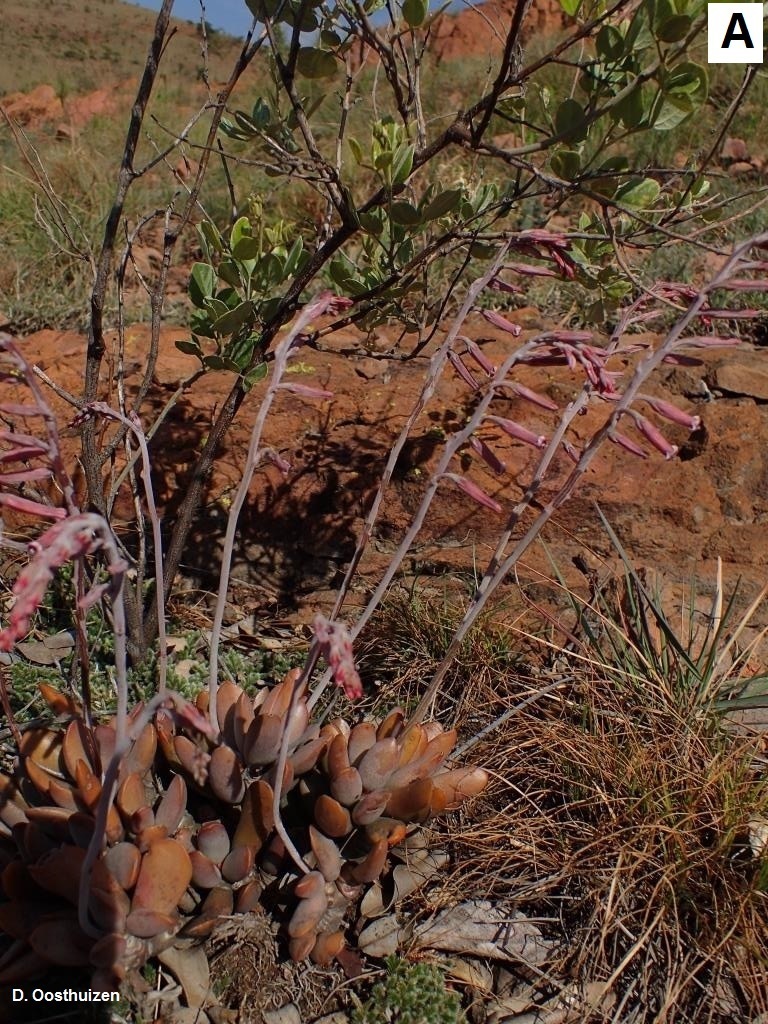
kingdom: Plantae
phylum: Tracheophyta
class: Magnoliopsida
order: Saxifragales
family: Crassulaceae
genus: Adromischus
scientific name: Adromischus umbraticola
